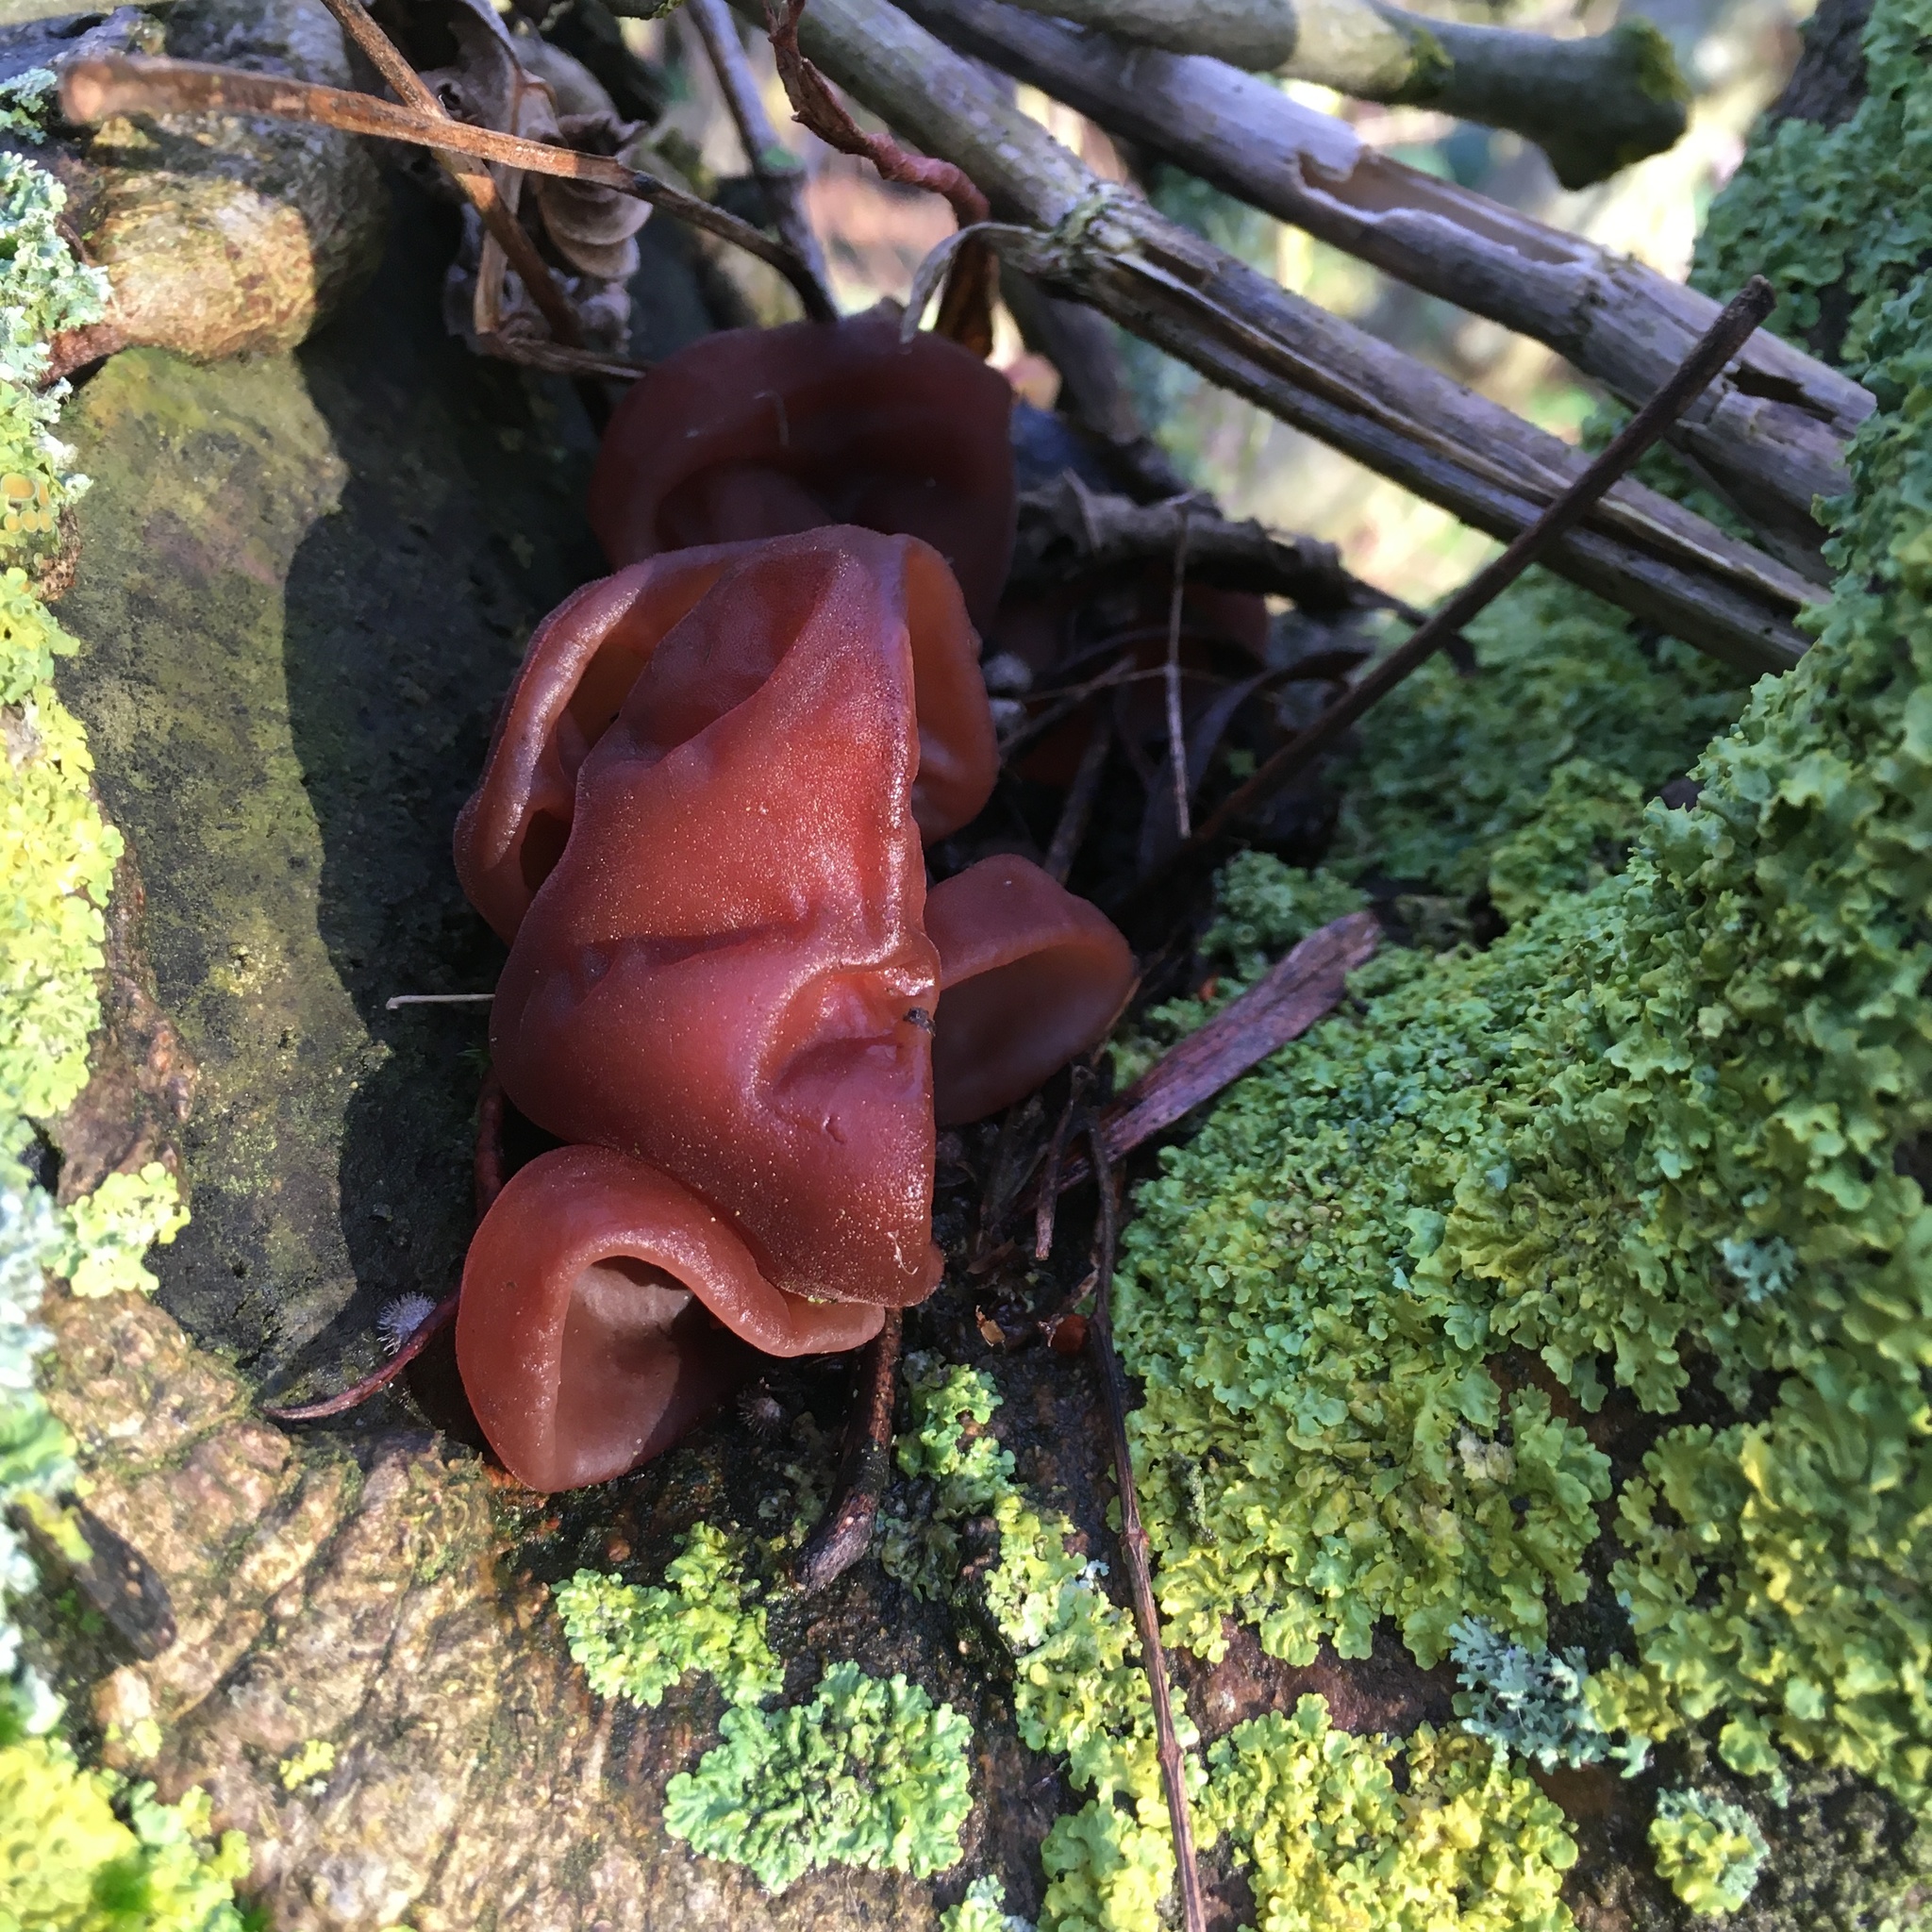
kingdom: Fungi
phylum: Basidiomycota
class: Agaricomycetes
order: Auriculariales
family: Auriculariaceae
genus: Auricularia
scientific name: Auricularia auricula-judae
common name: Jelly ear
